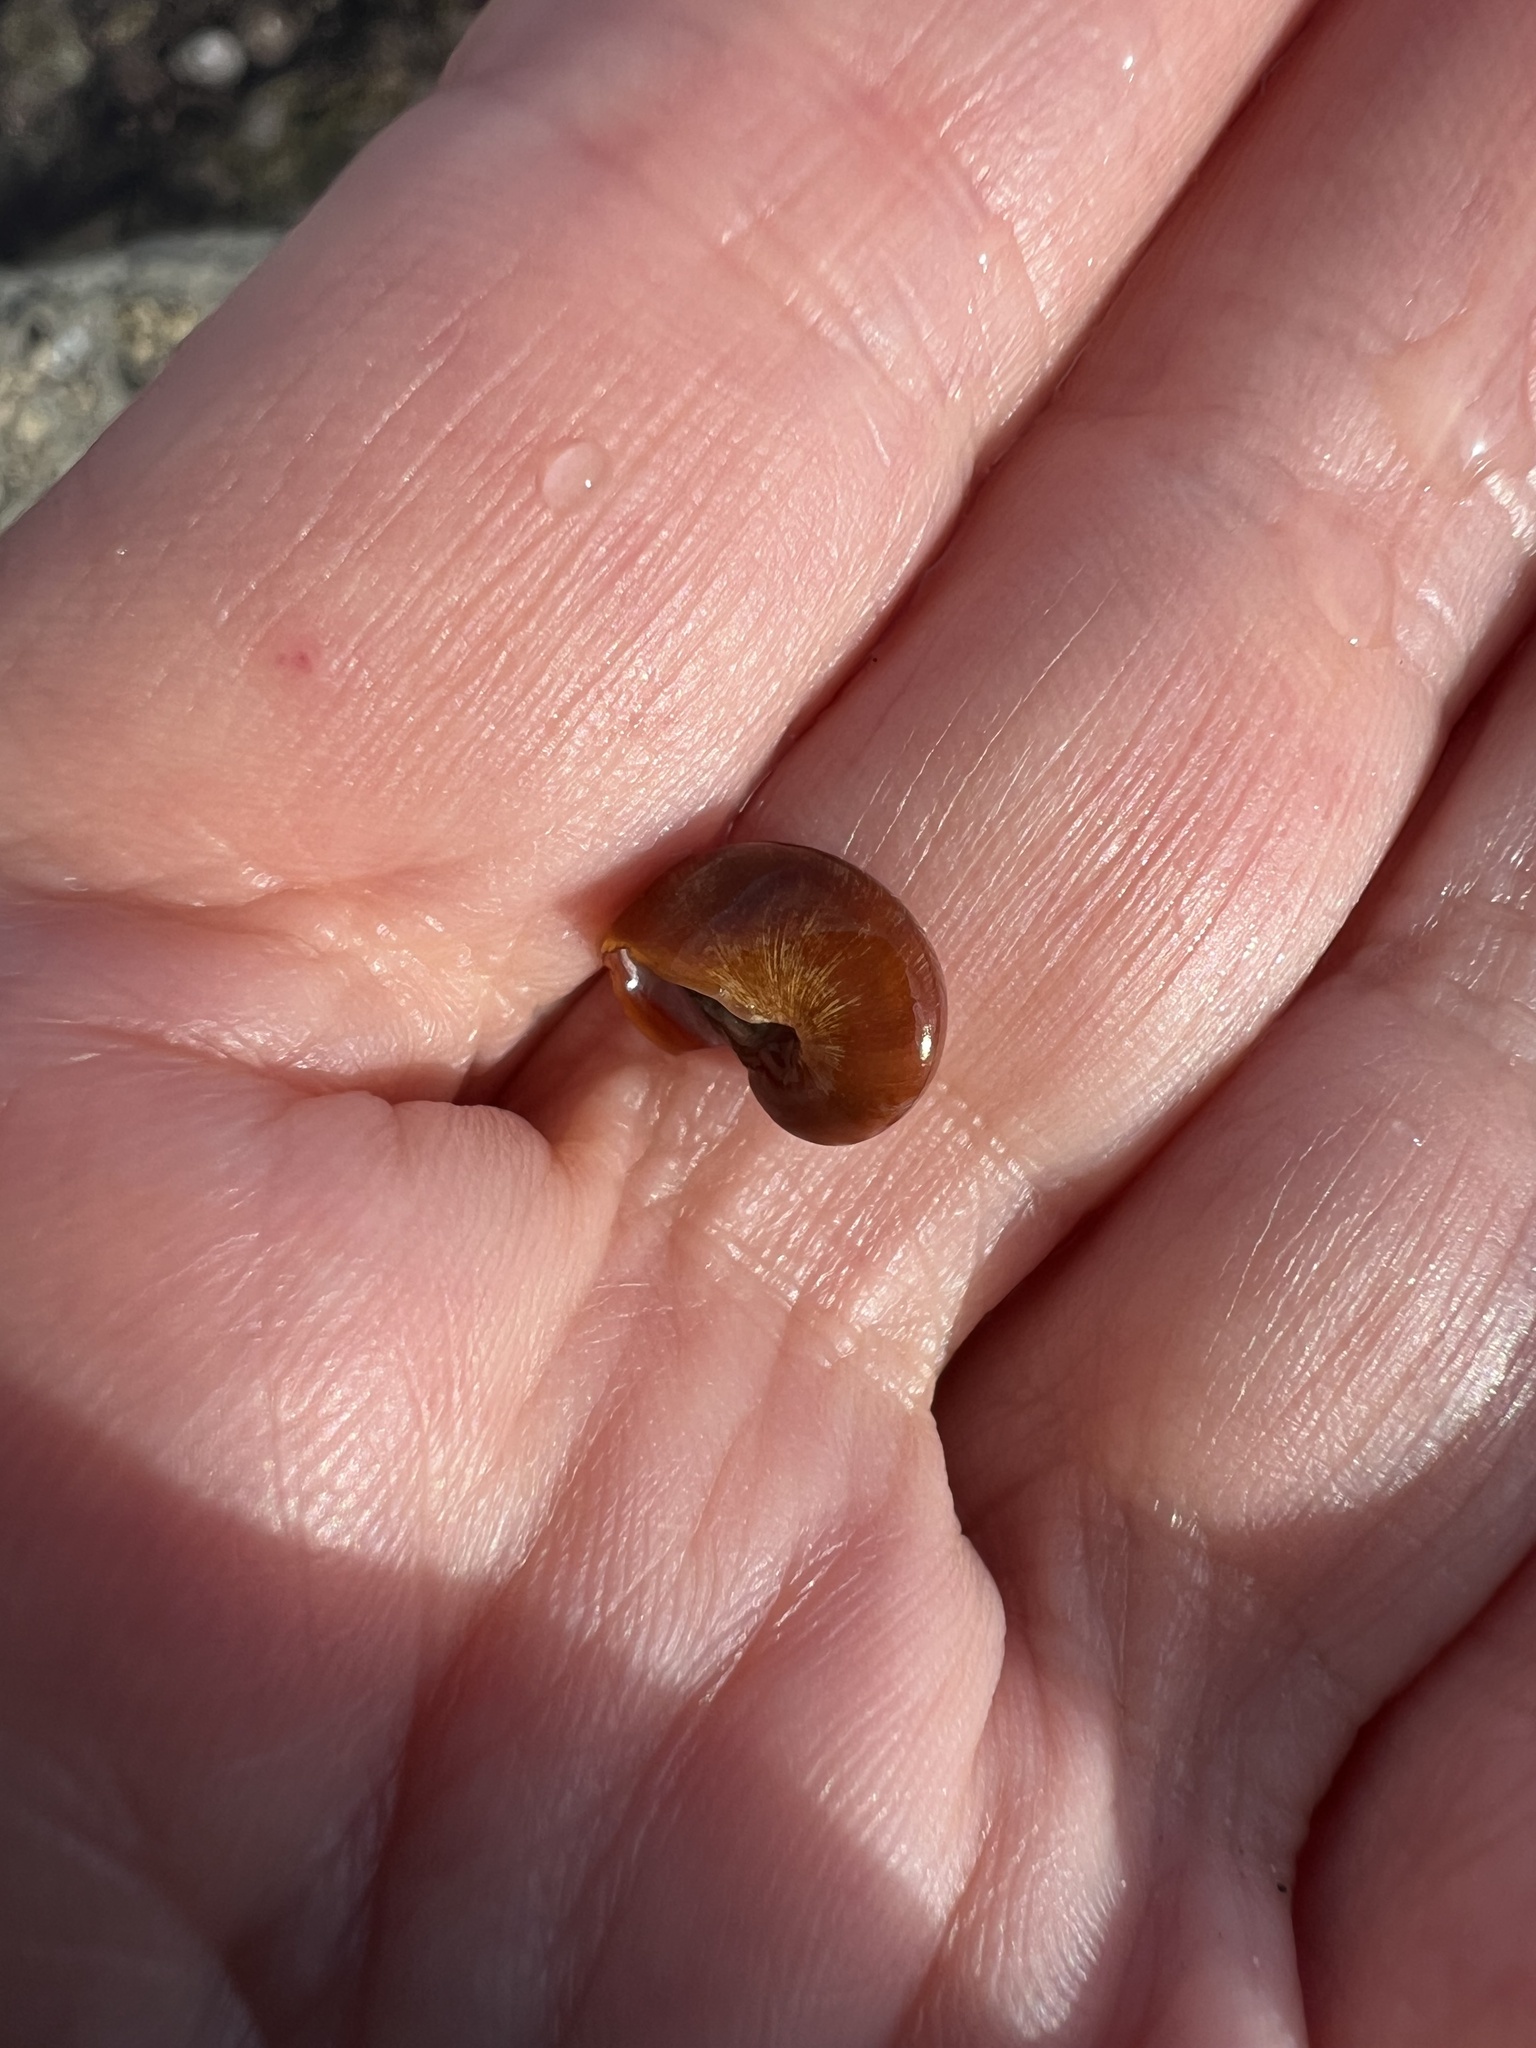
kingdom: Animalia
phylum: Mollusca
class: Gastropoda
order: Trochida
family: Tegulidae
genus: Norrisia
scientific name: Norrisia norrisii
